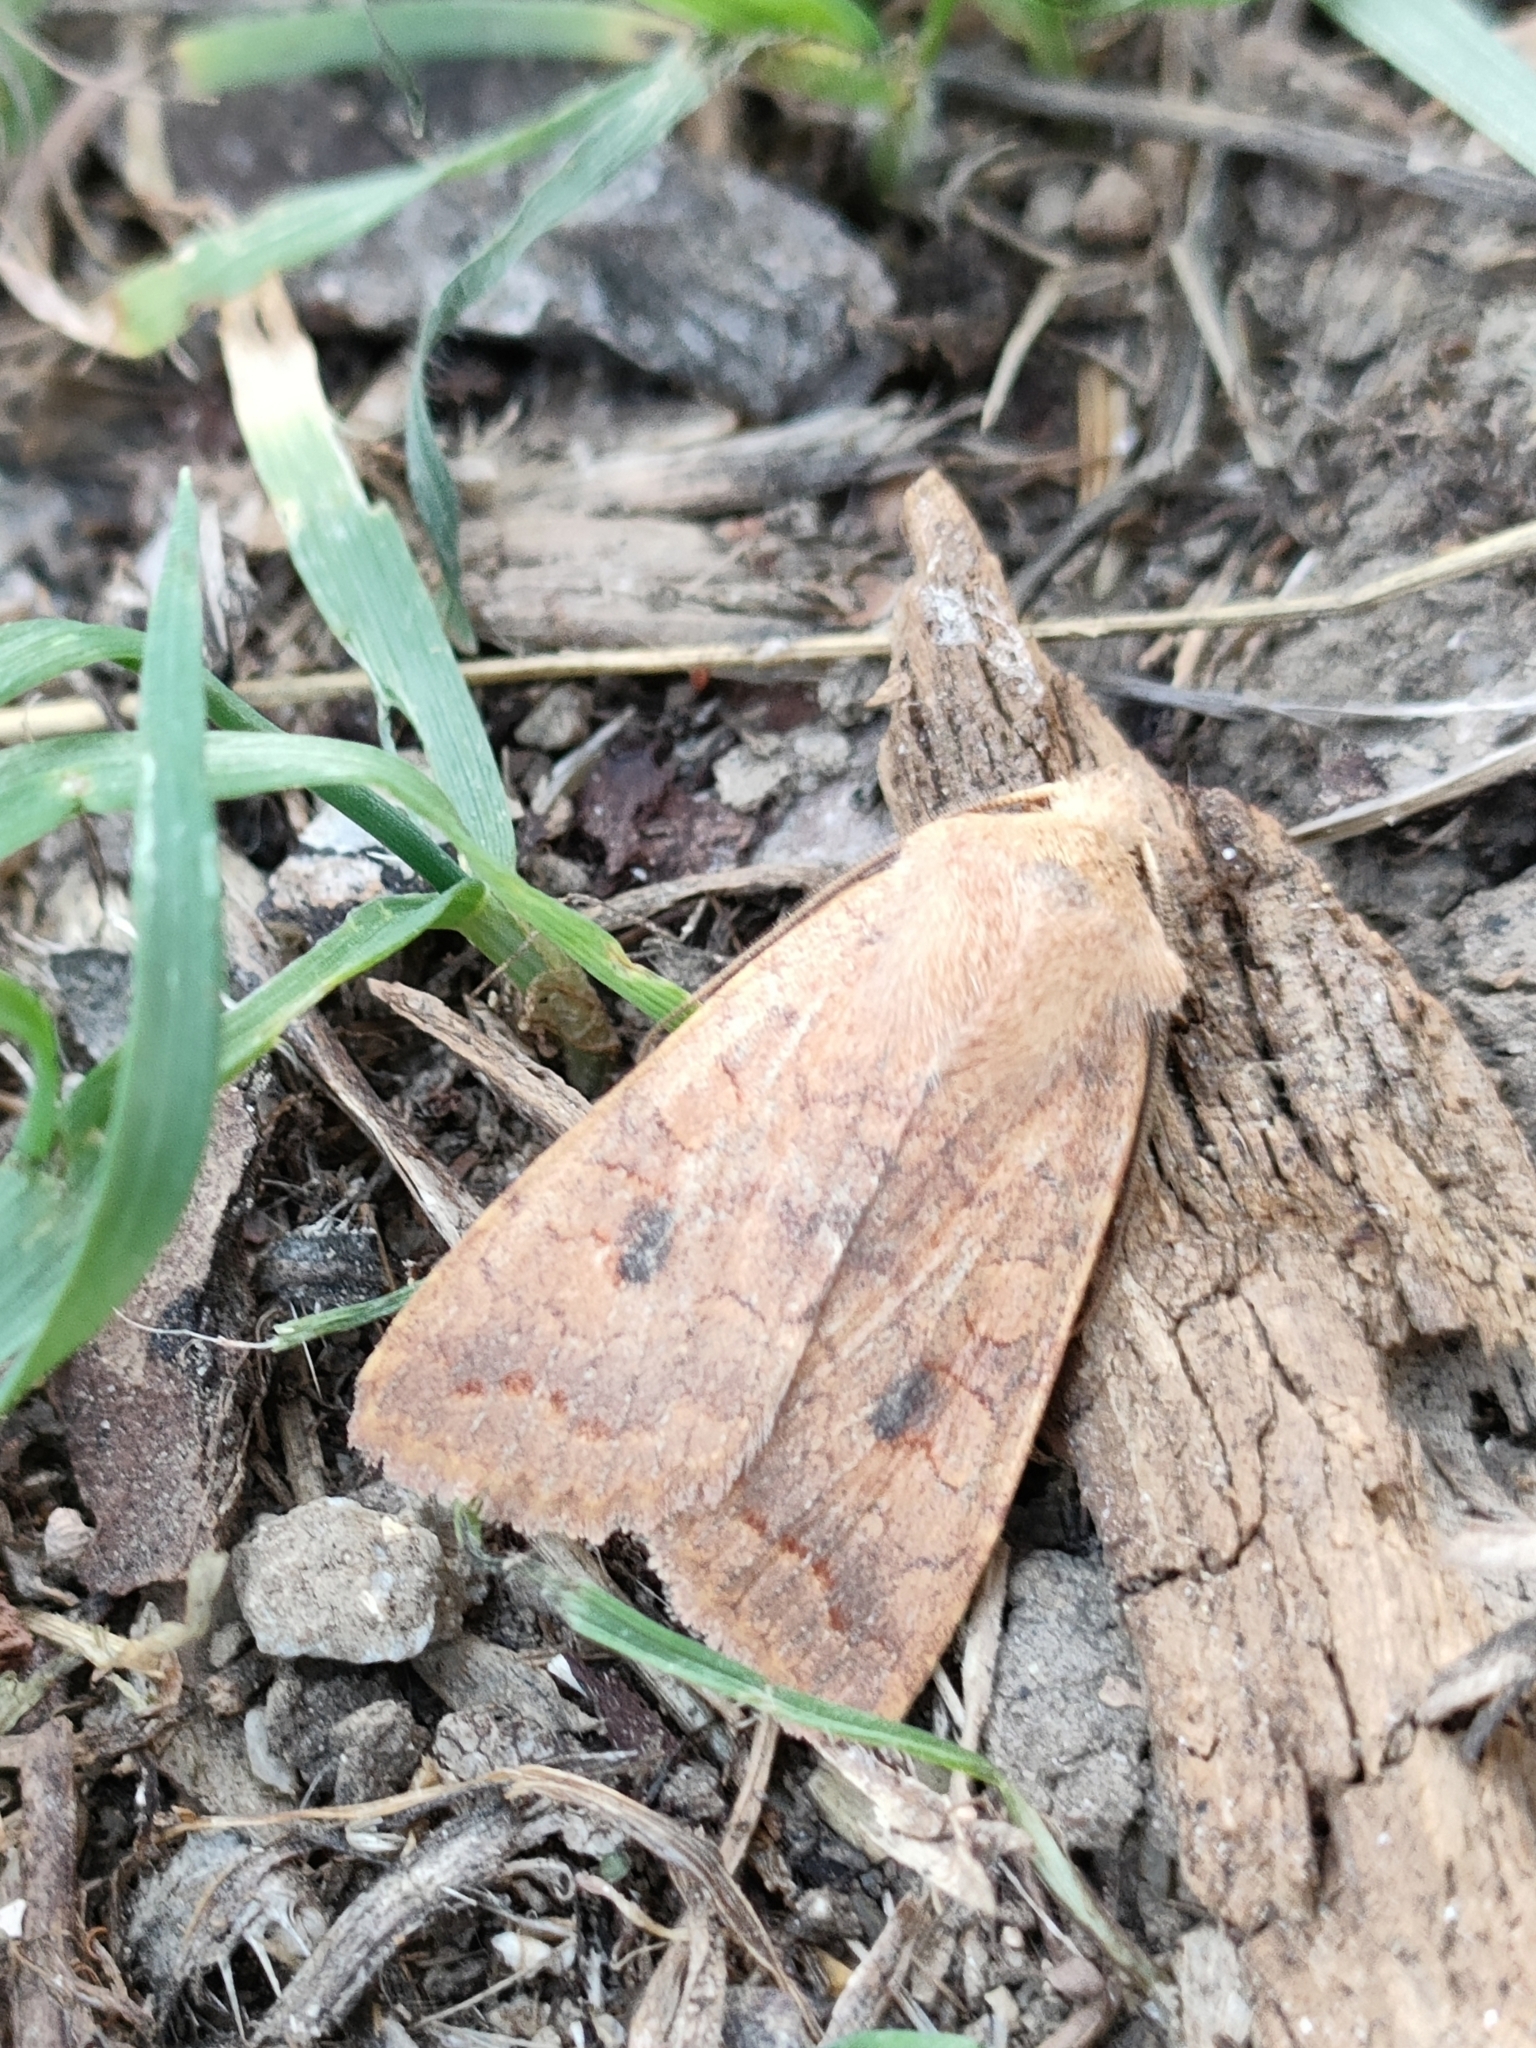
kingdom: Animalia
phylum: Arthropoda
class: Insecta
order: Lepidoptera
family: Noctuidae
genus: Sunira
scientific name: Sunira circellaris
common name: Brick
